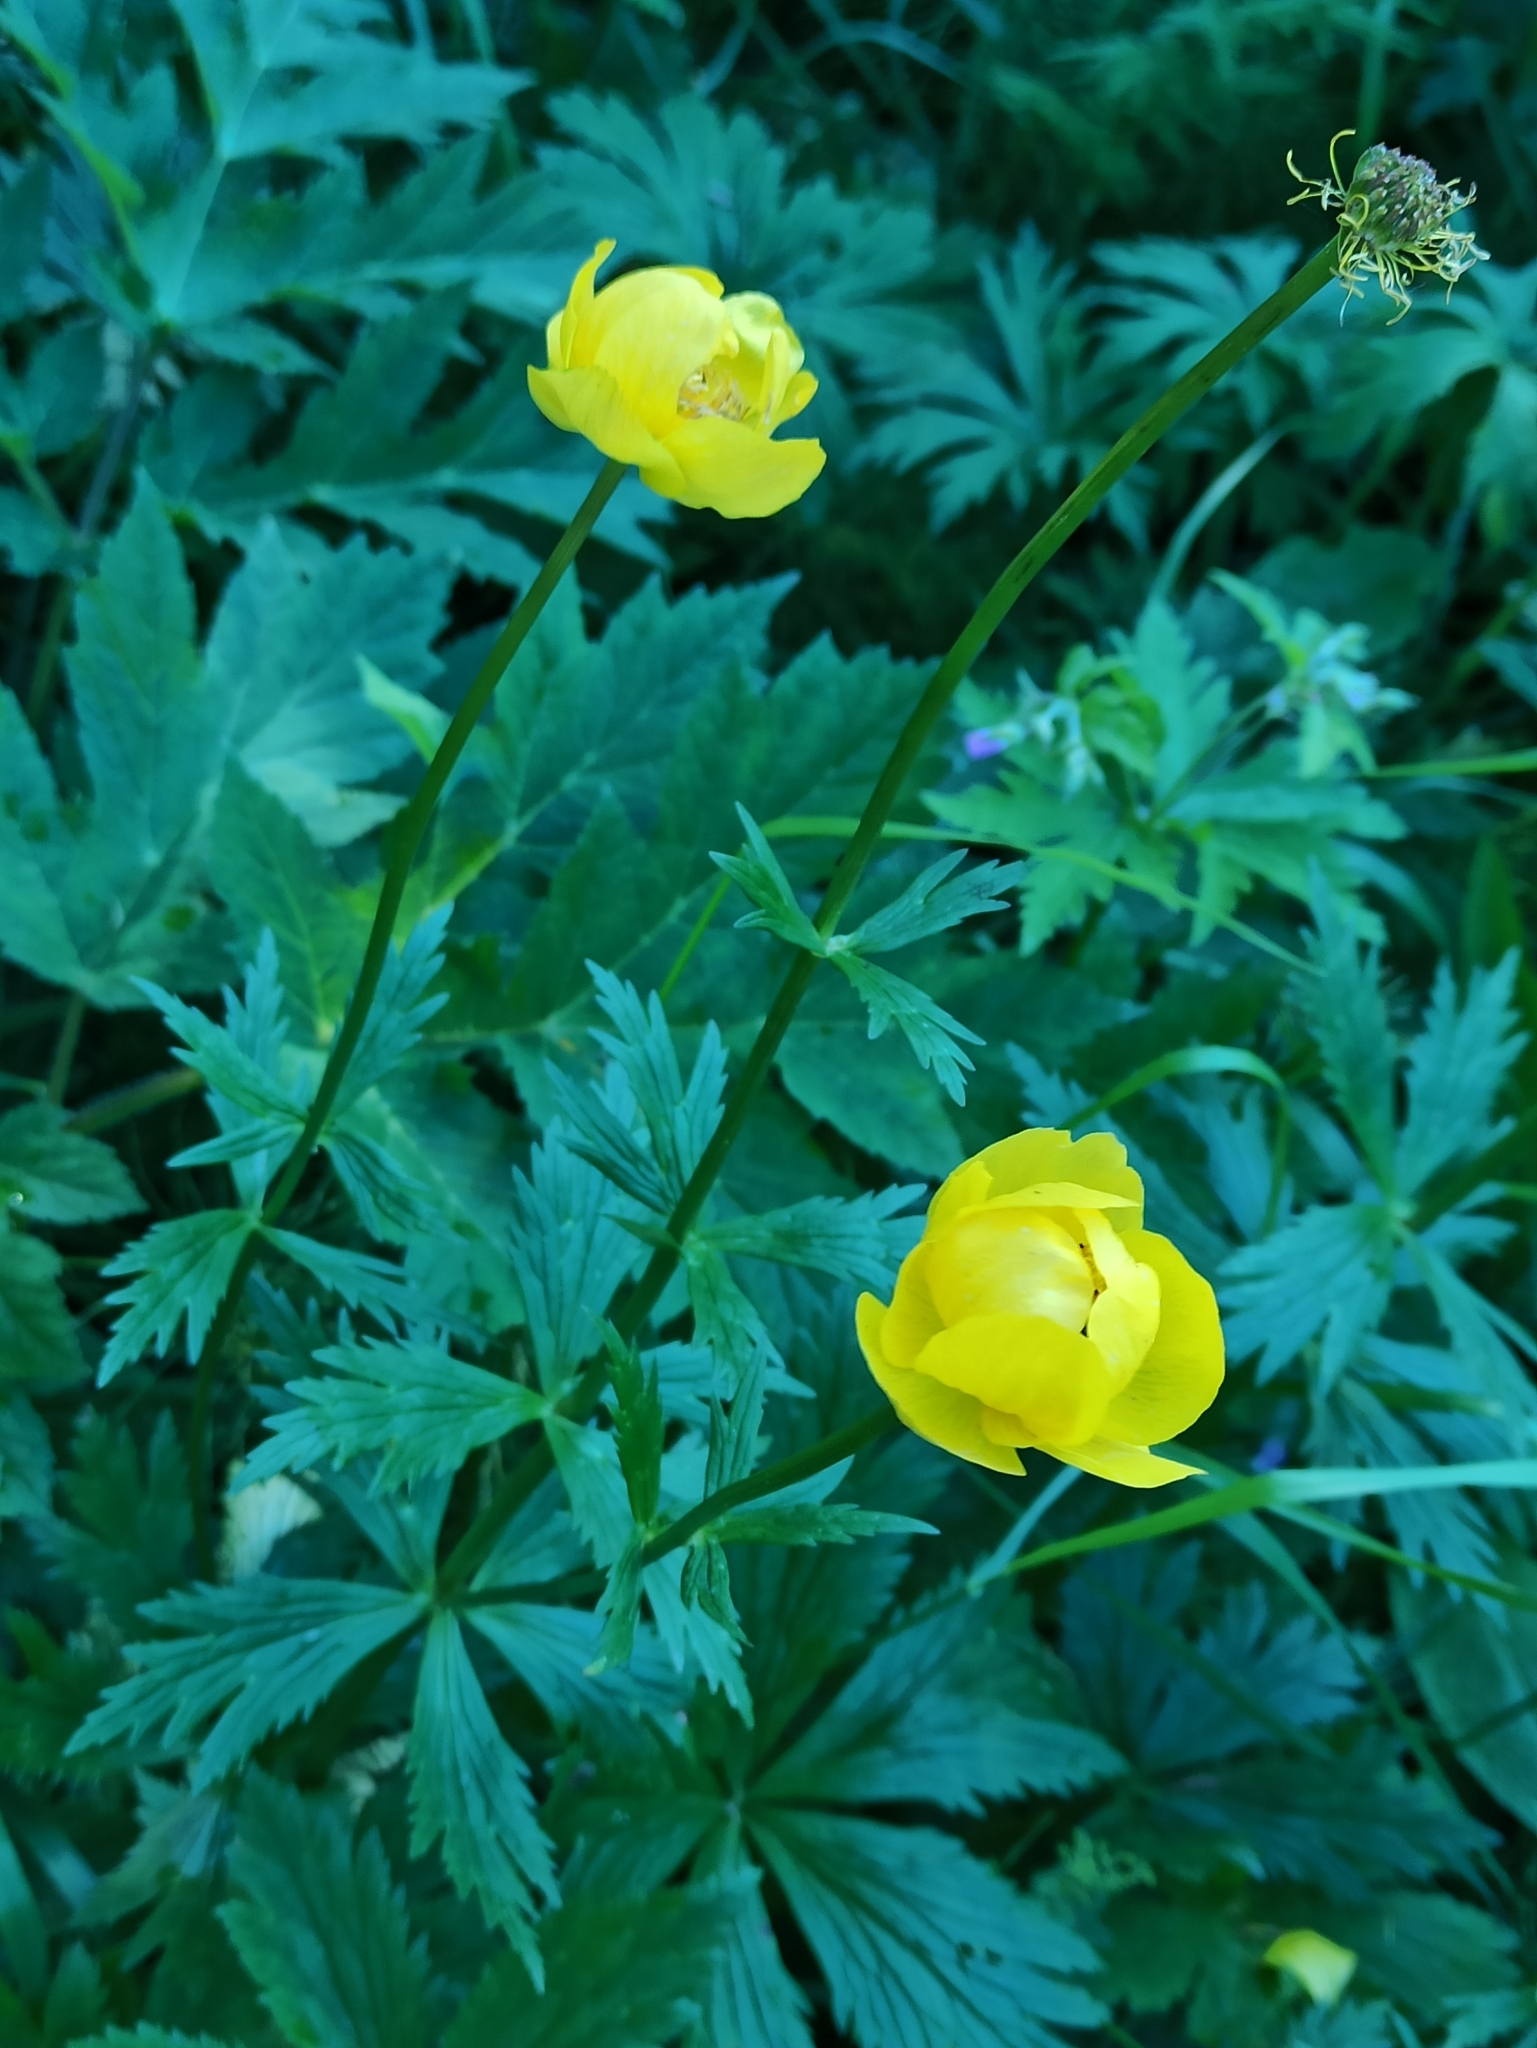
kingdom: Plantae
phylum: Tracheophyta
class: Magnoliopsida
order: Ranunculales
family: Ranunculaceae
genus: Trollius
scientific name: Trollius europaeus
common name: European globeflower
